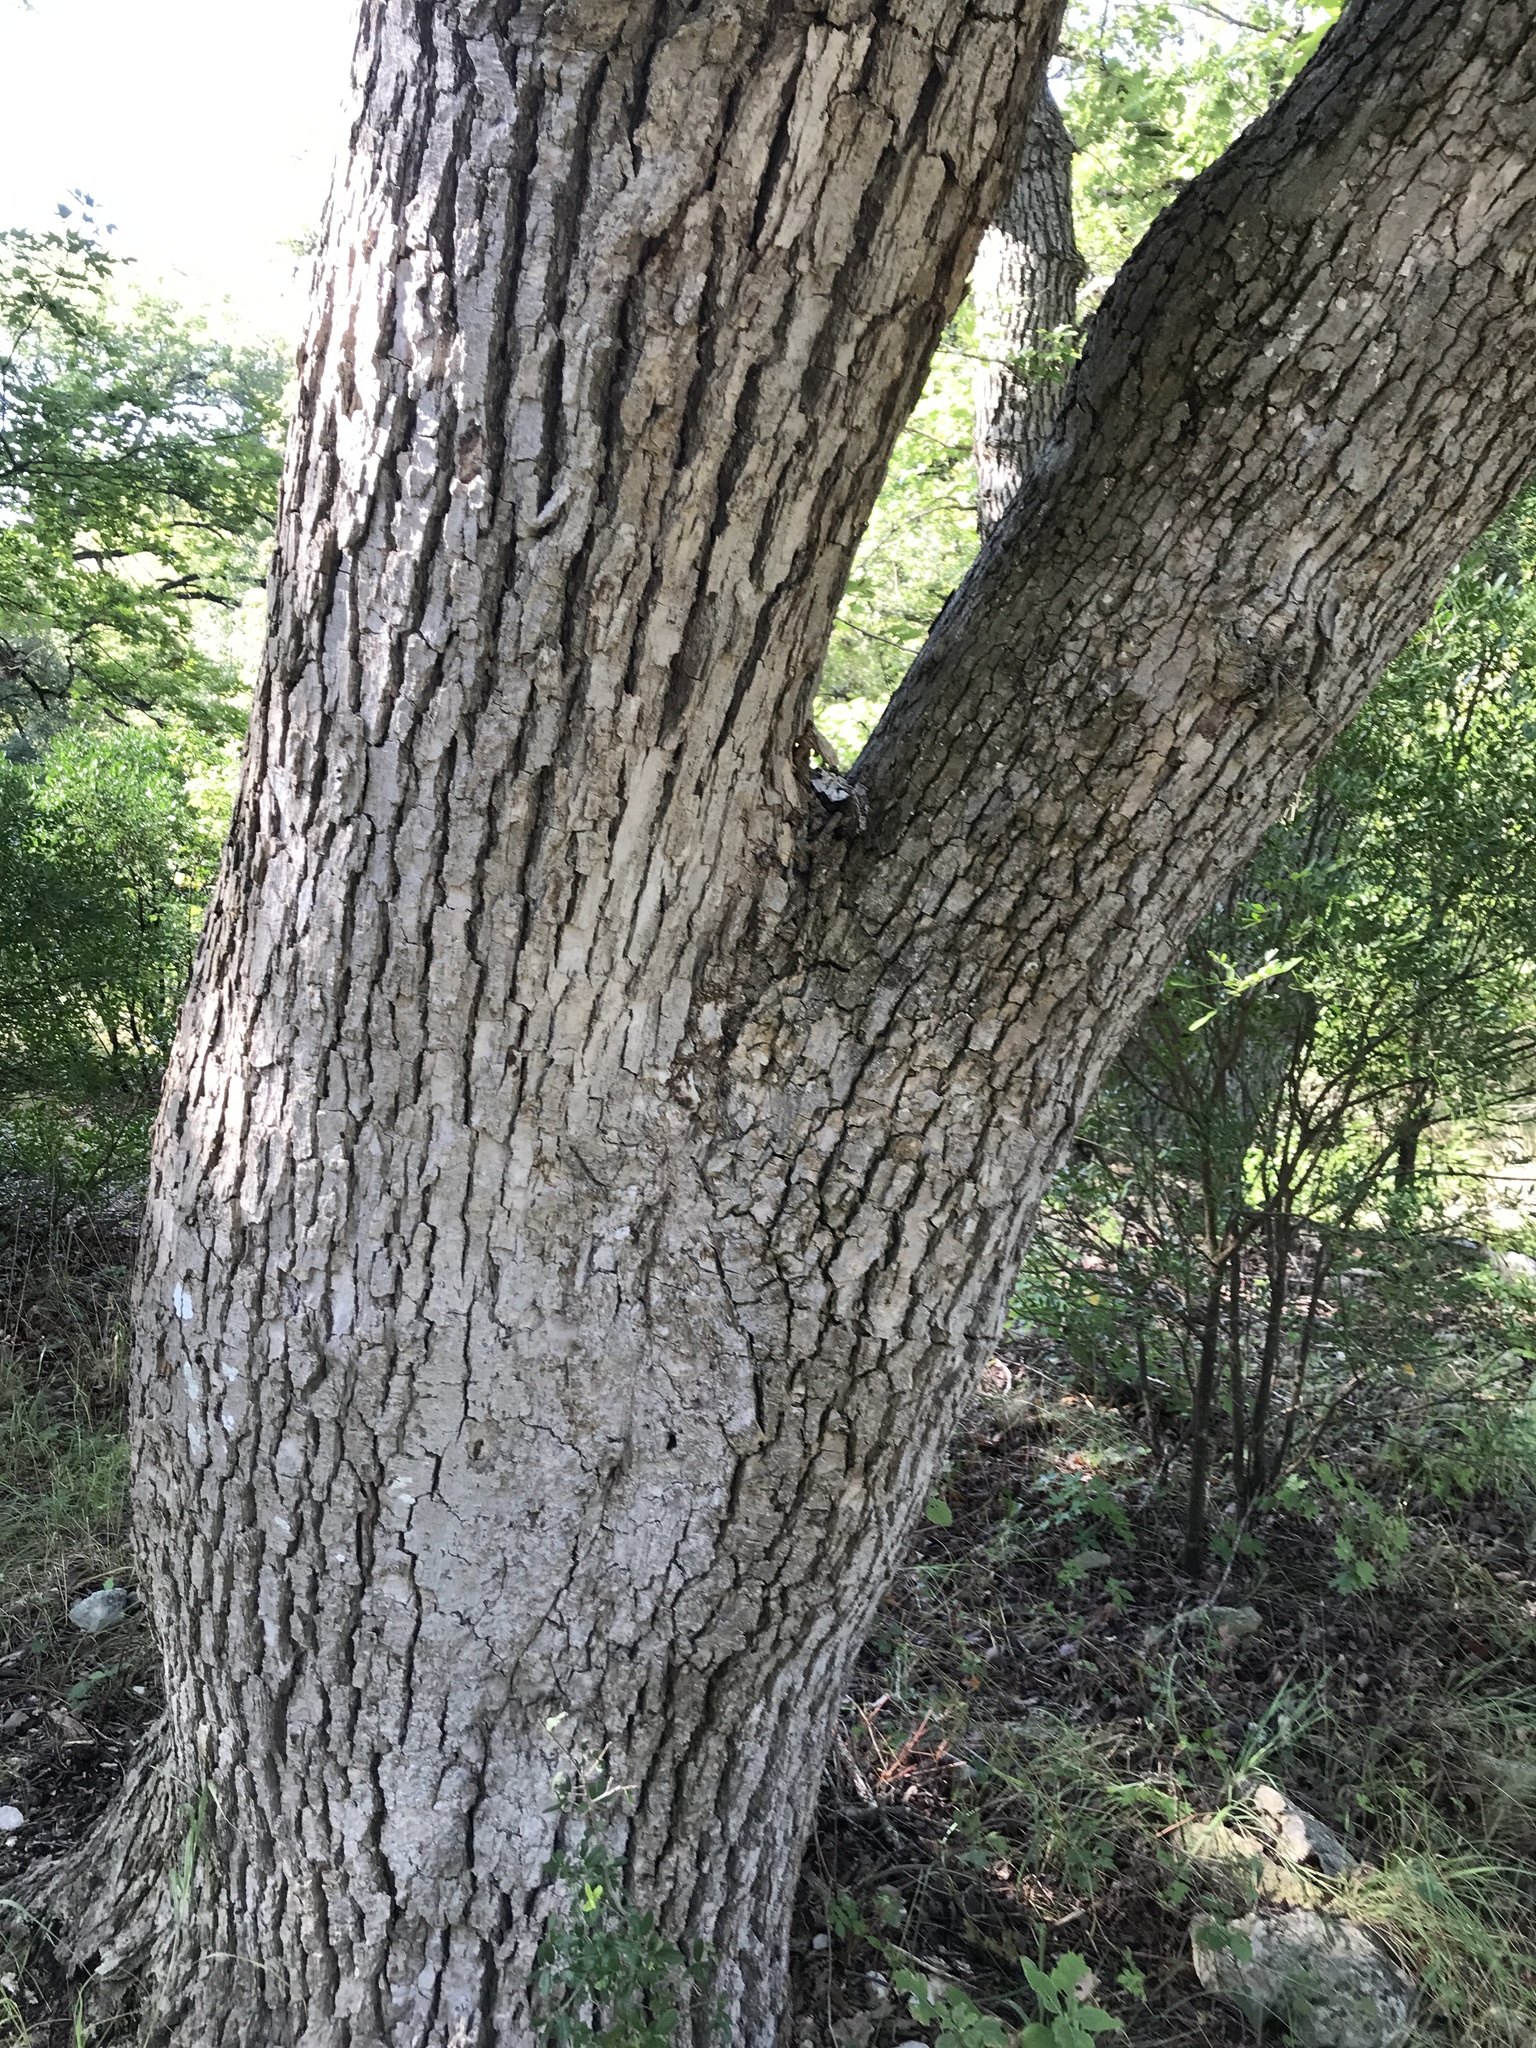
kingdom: Plantae
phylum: Tracheophyta
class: Magnoliopsida
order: Fagales
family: Fagaceae
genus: Quercus
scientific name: Quercus muehlenbergii
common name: Chinkapin oak
